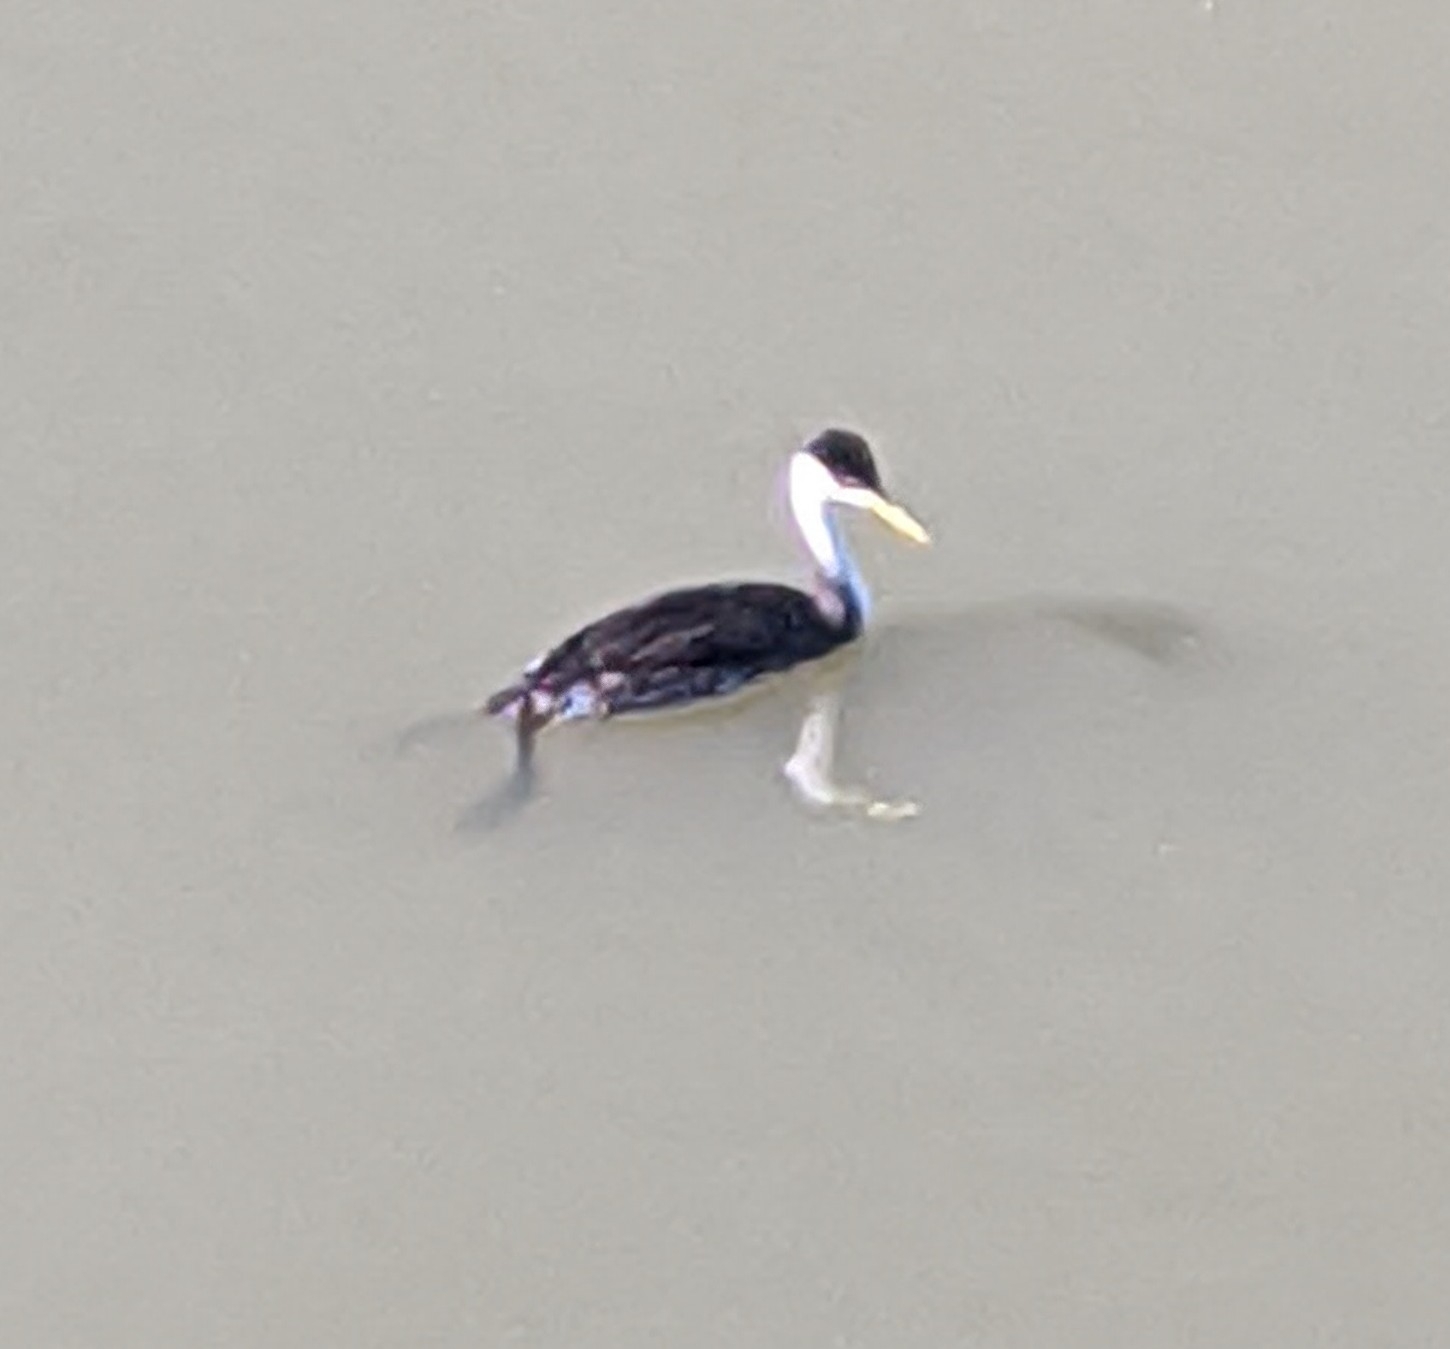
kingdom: Animalia
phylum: Chordata
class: Aves
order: Podicipediformes
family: Podicipedidae
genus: Aechmophorus
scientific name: Aechmophorus occidentalis
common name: Western grebe
